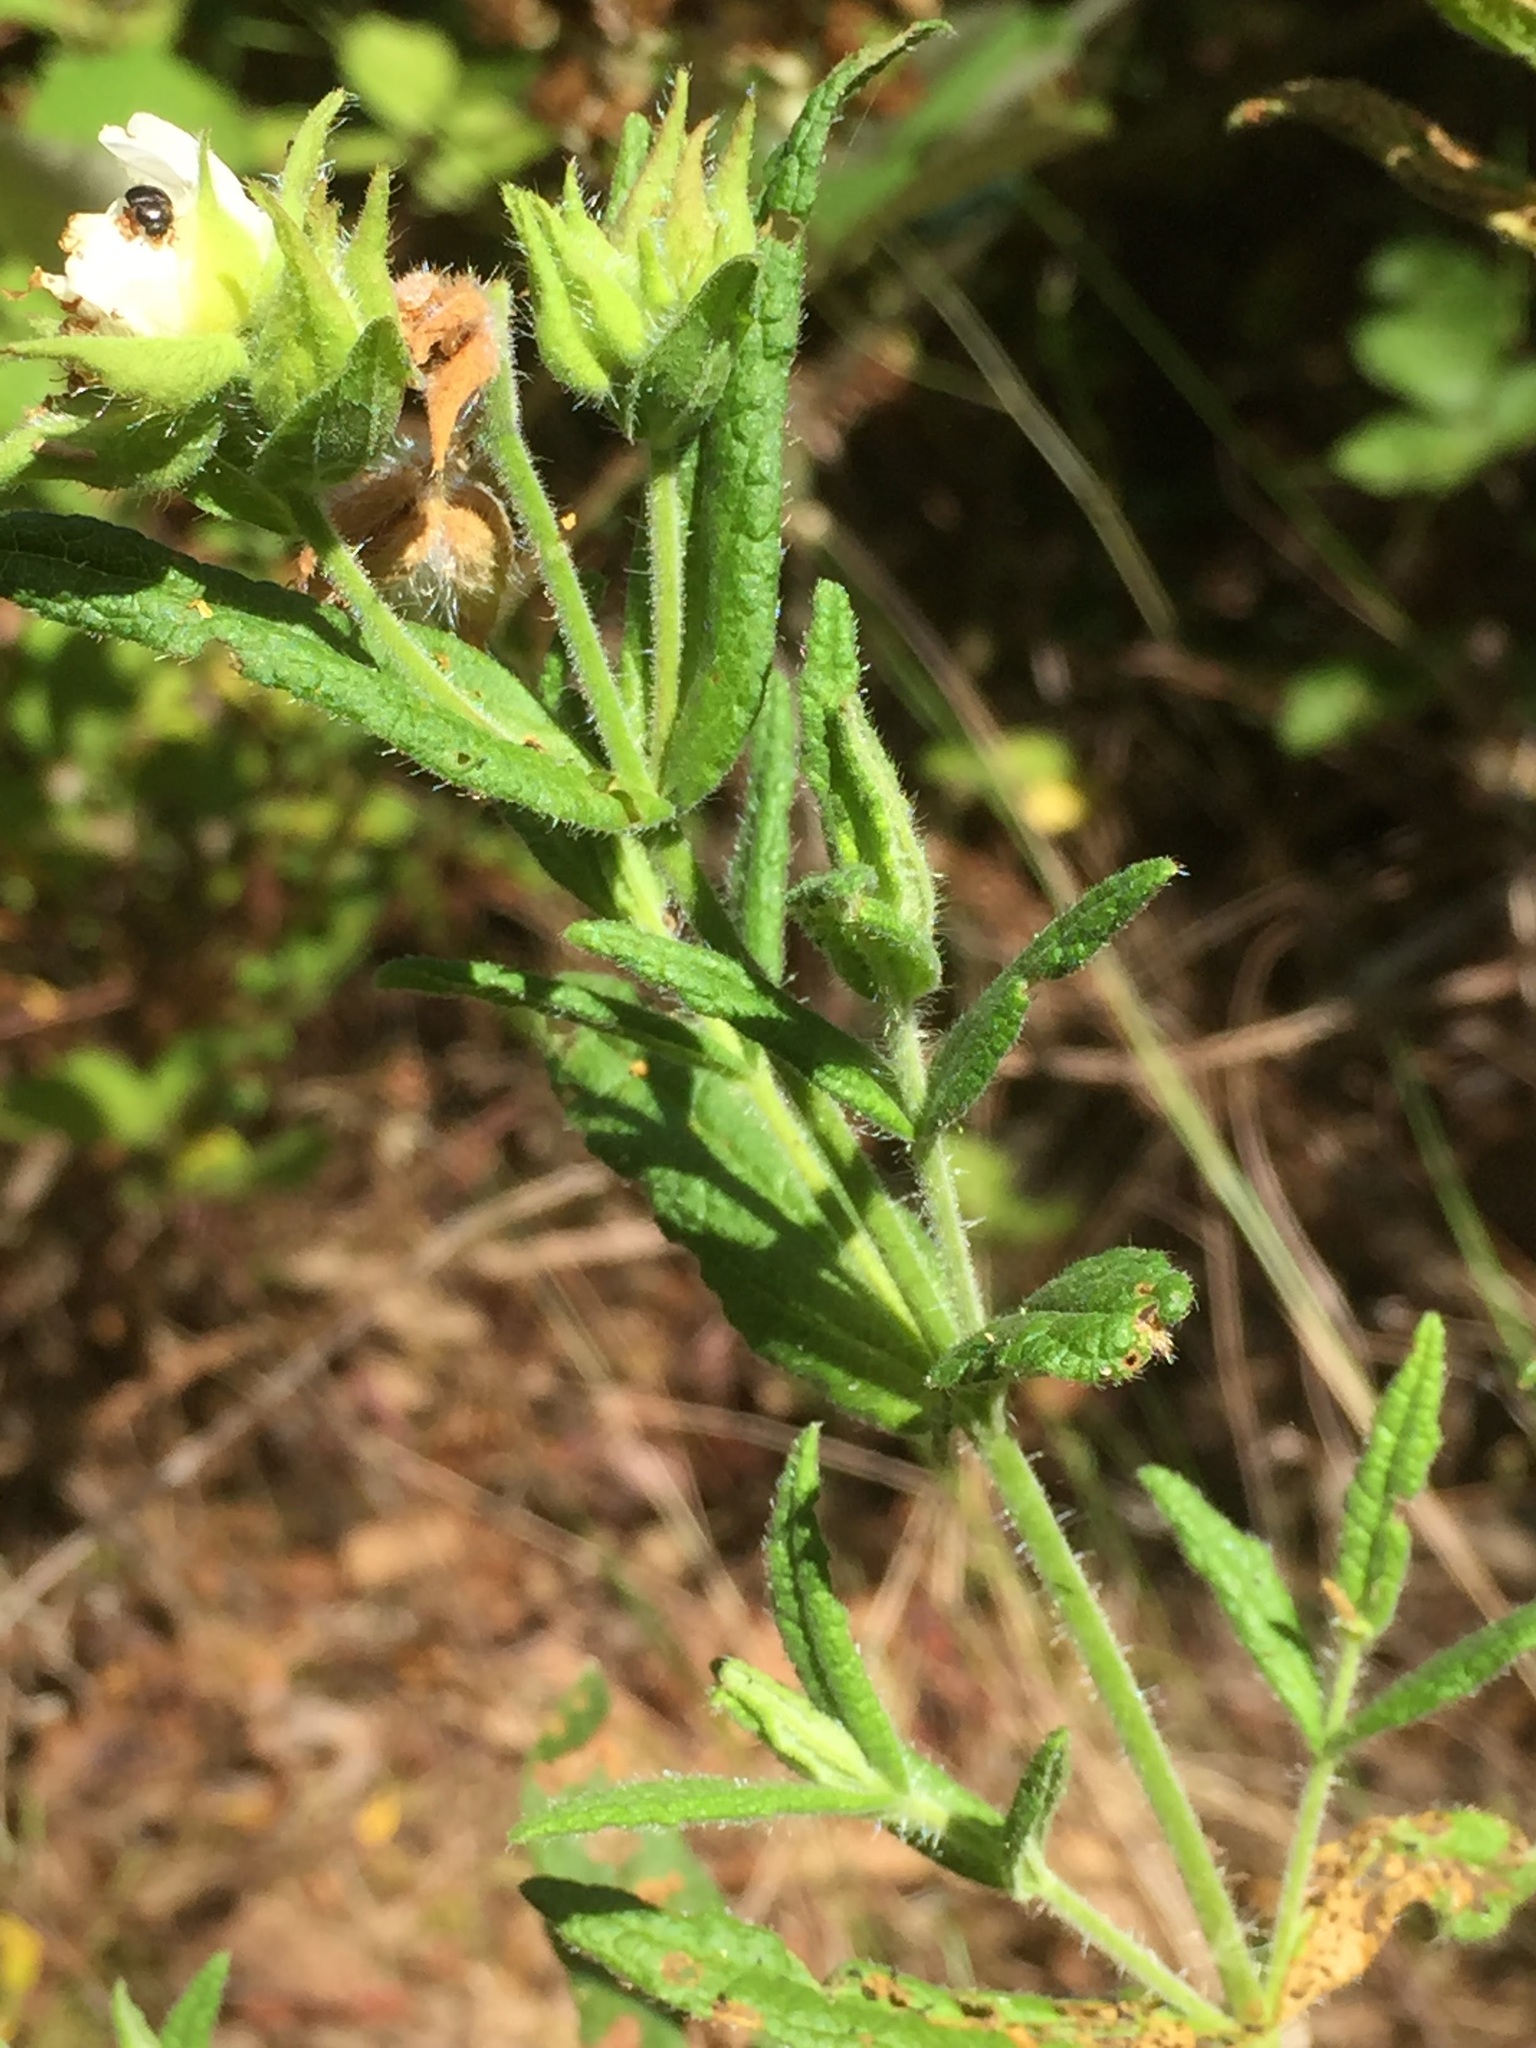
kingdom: Plantae
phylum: Tracheophyta
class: Magnoliopsida
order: Malvales
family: Cistaceae
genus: Cistus
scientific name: Cistus inflatus
